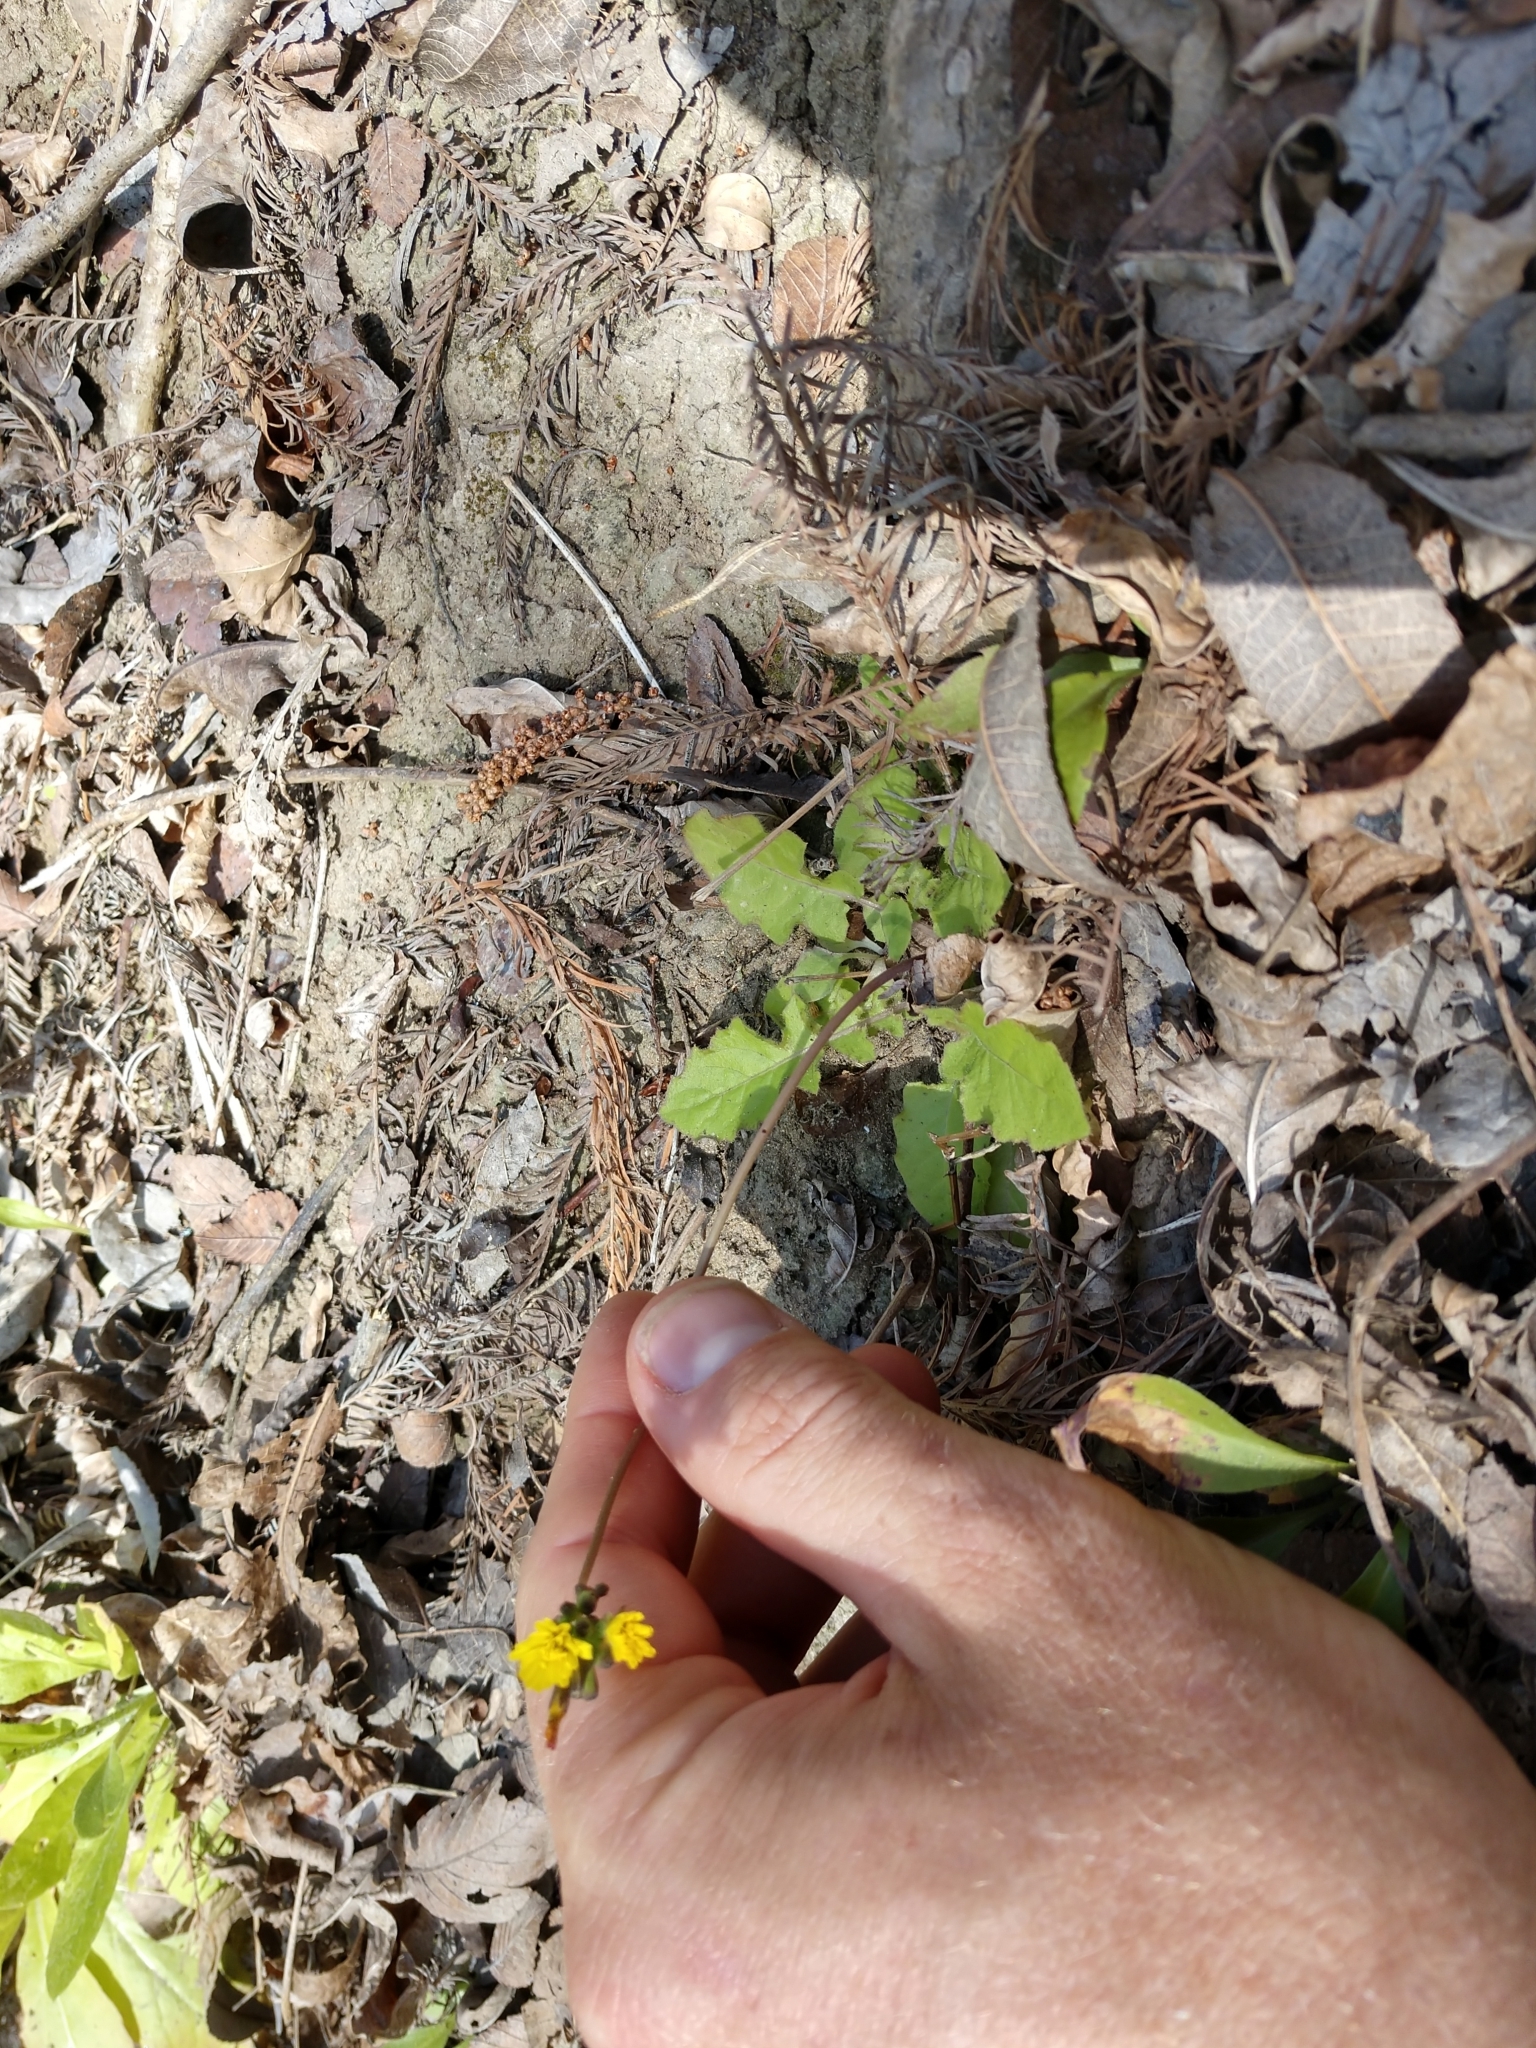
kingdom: Plantae
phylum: Tracheophyta
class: Magnoliopsida
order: Asterales
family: Asteraceae
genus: Youngia
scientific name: Youngia japonica
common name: Oriental false hawksbeard
